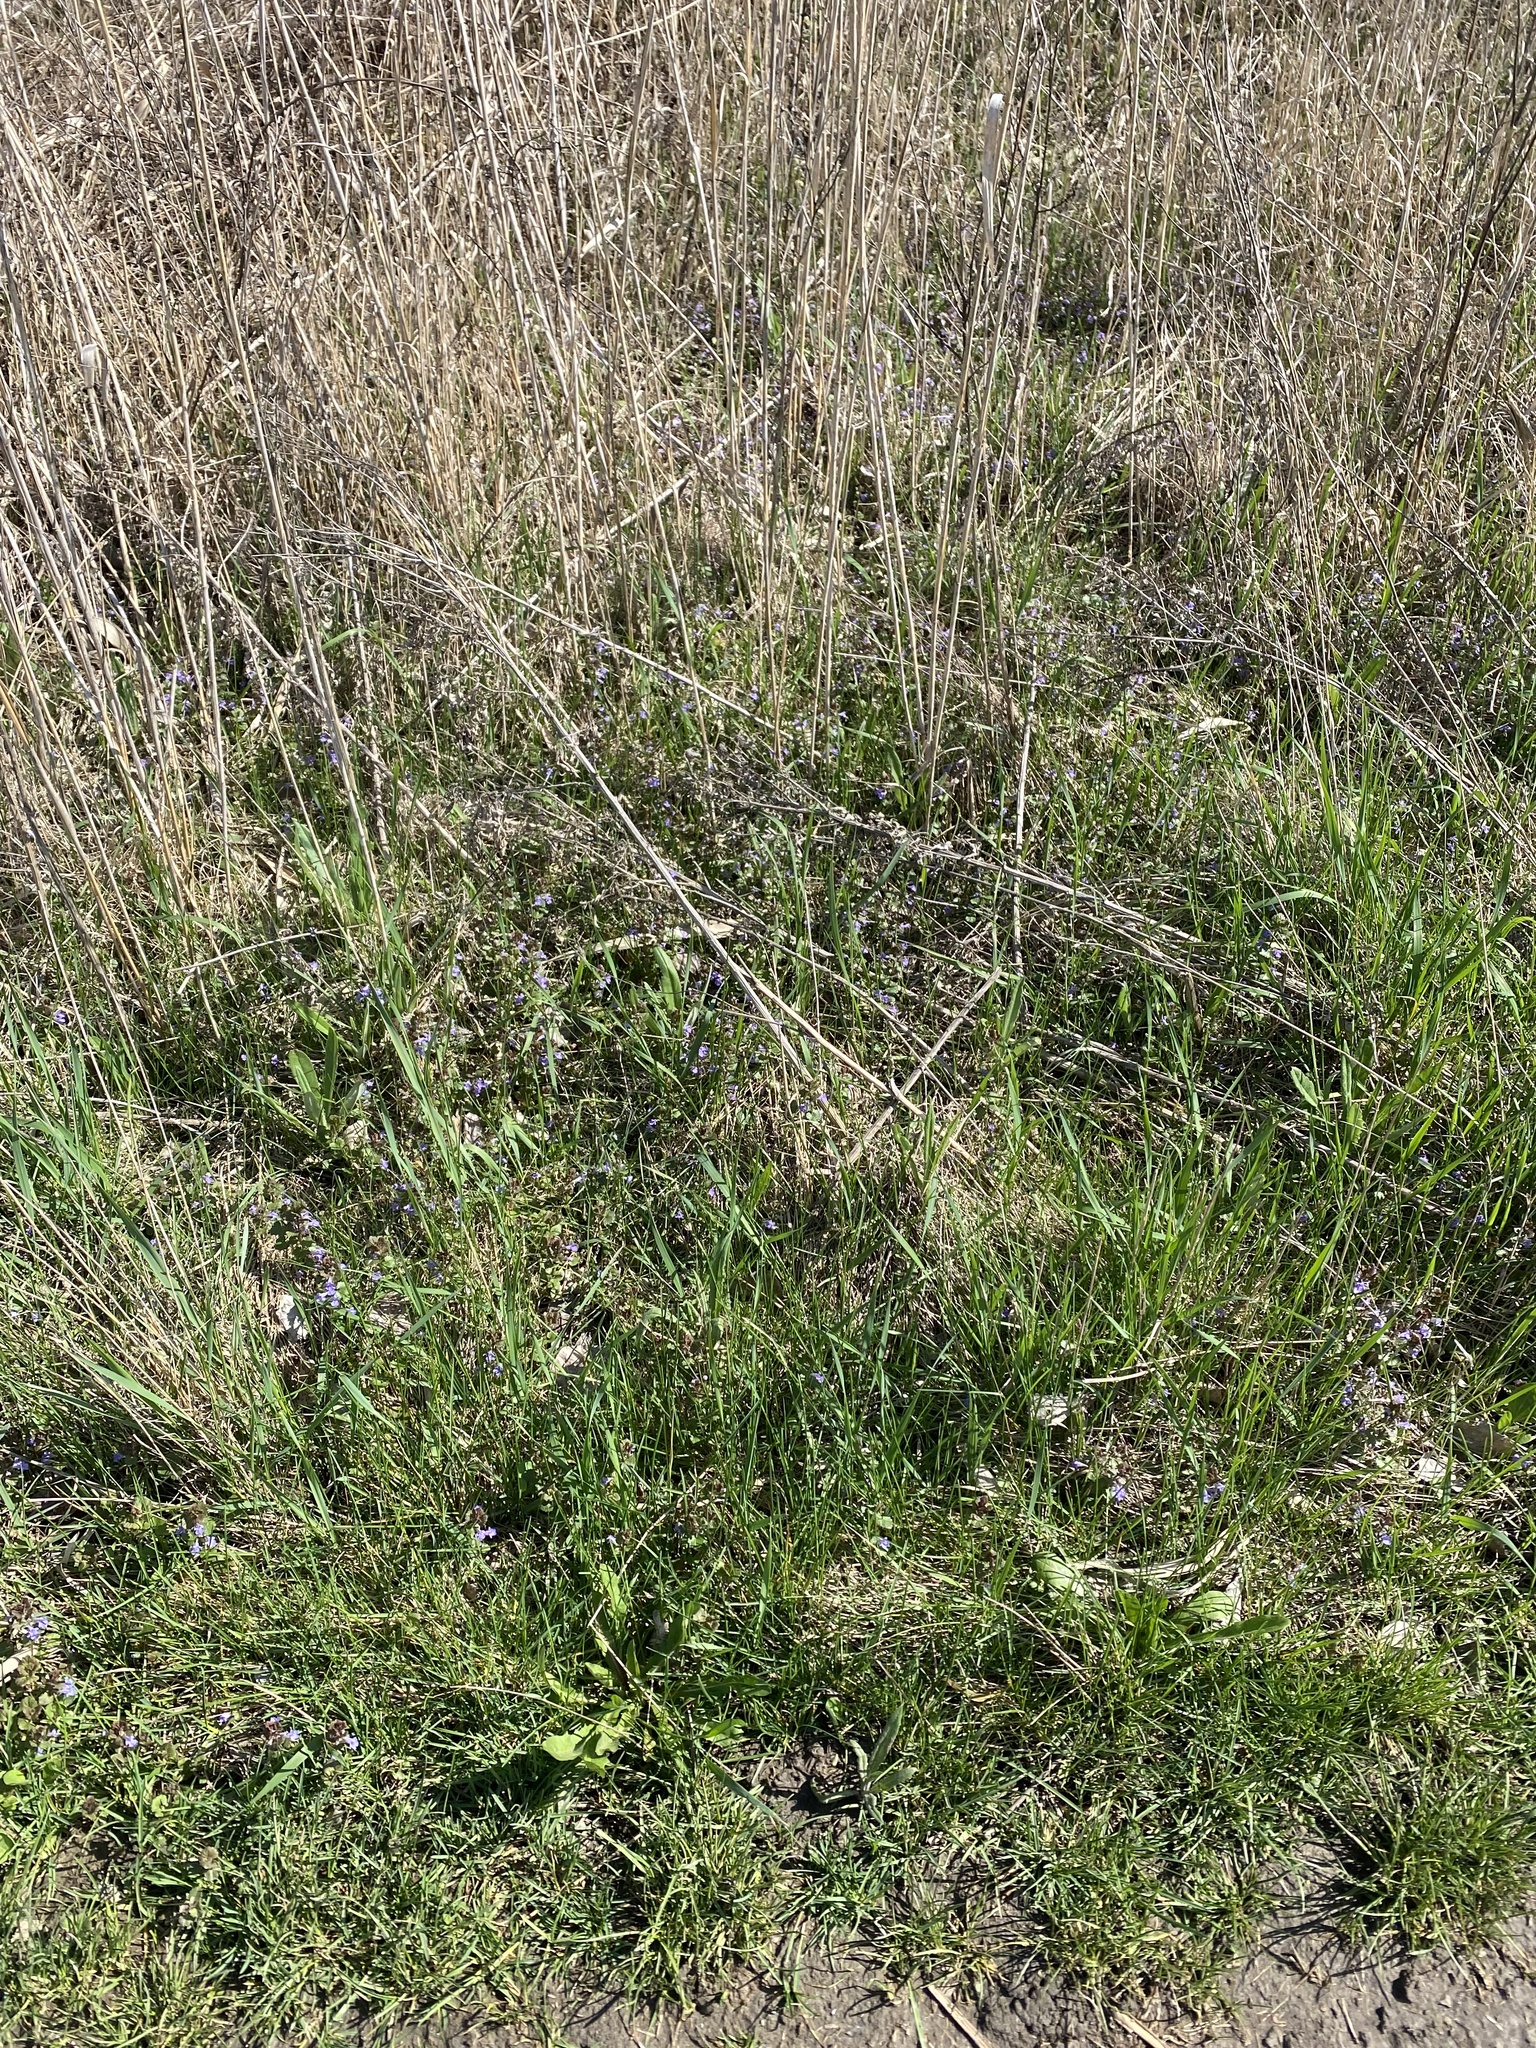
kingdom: Plantae
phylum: Tracheophyta
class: Magnoliopsida
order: Lamiales
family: Lamiaceae
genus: Glechoma
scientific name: Glechoma hederacea
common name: Ground ivy
